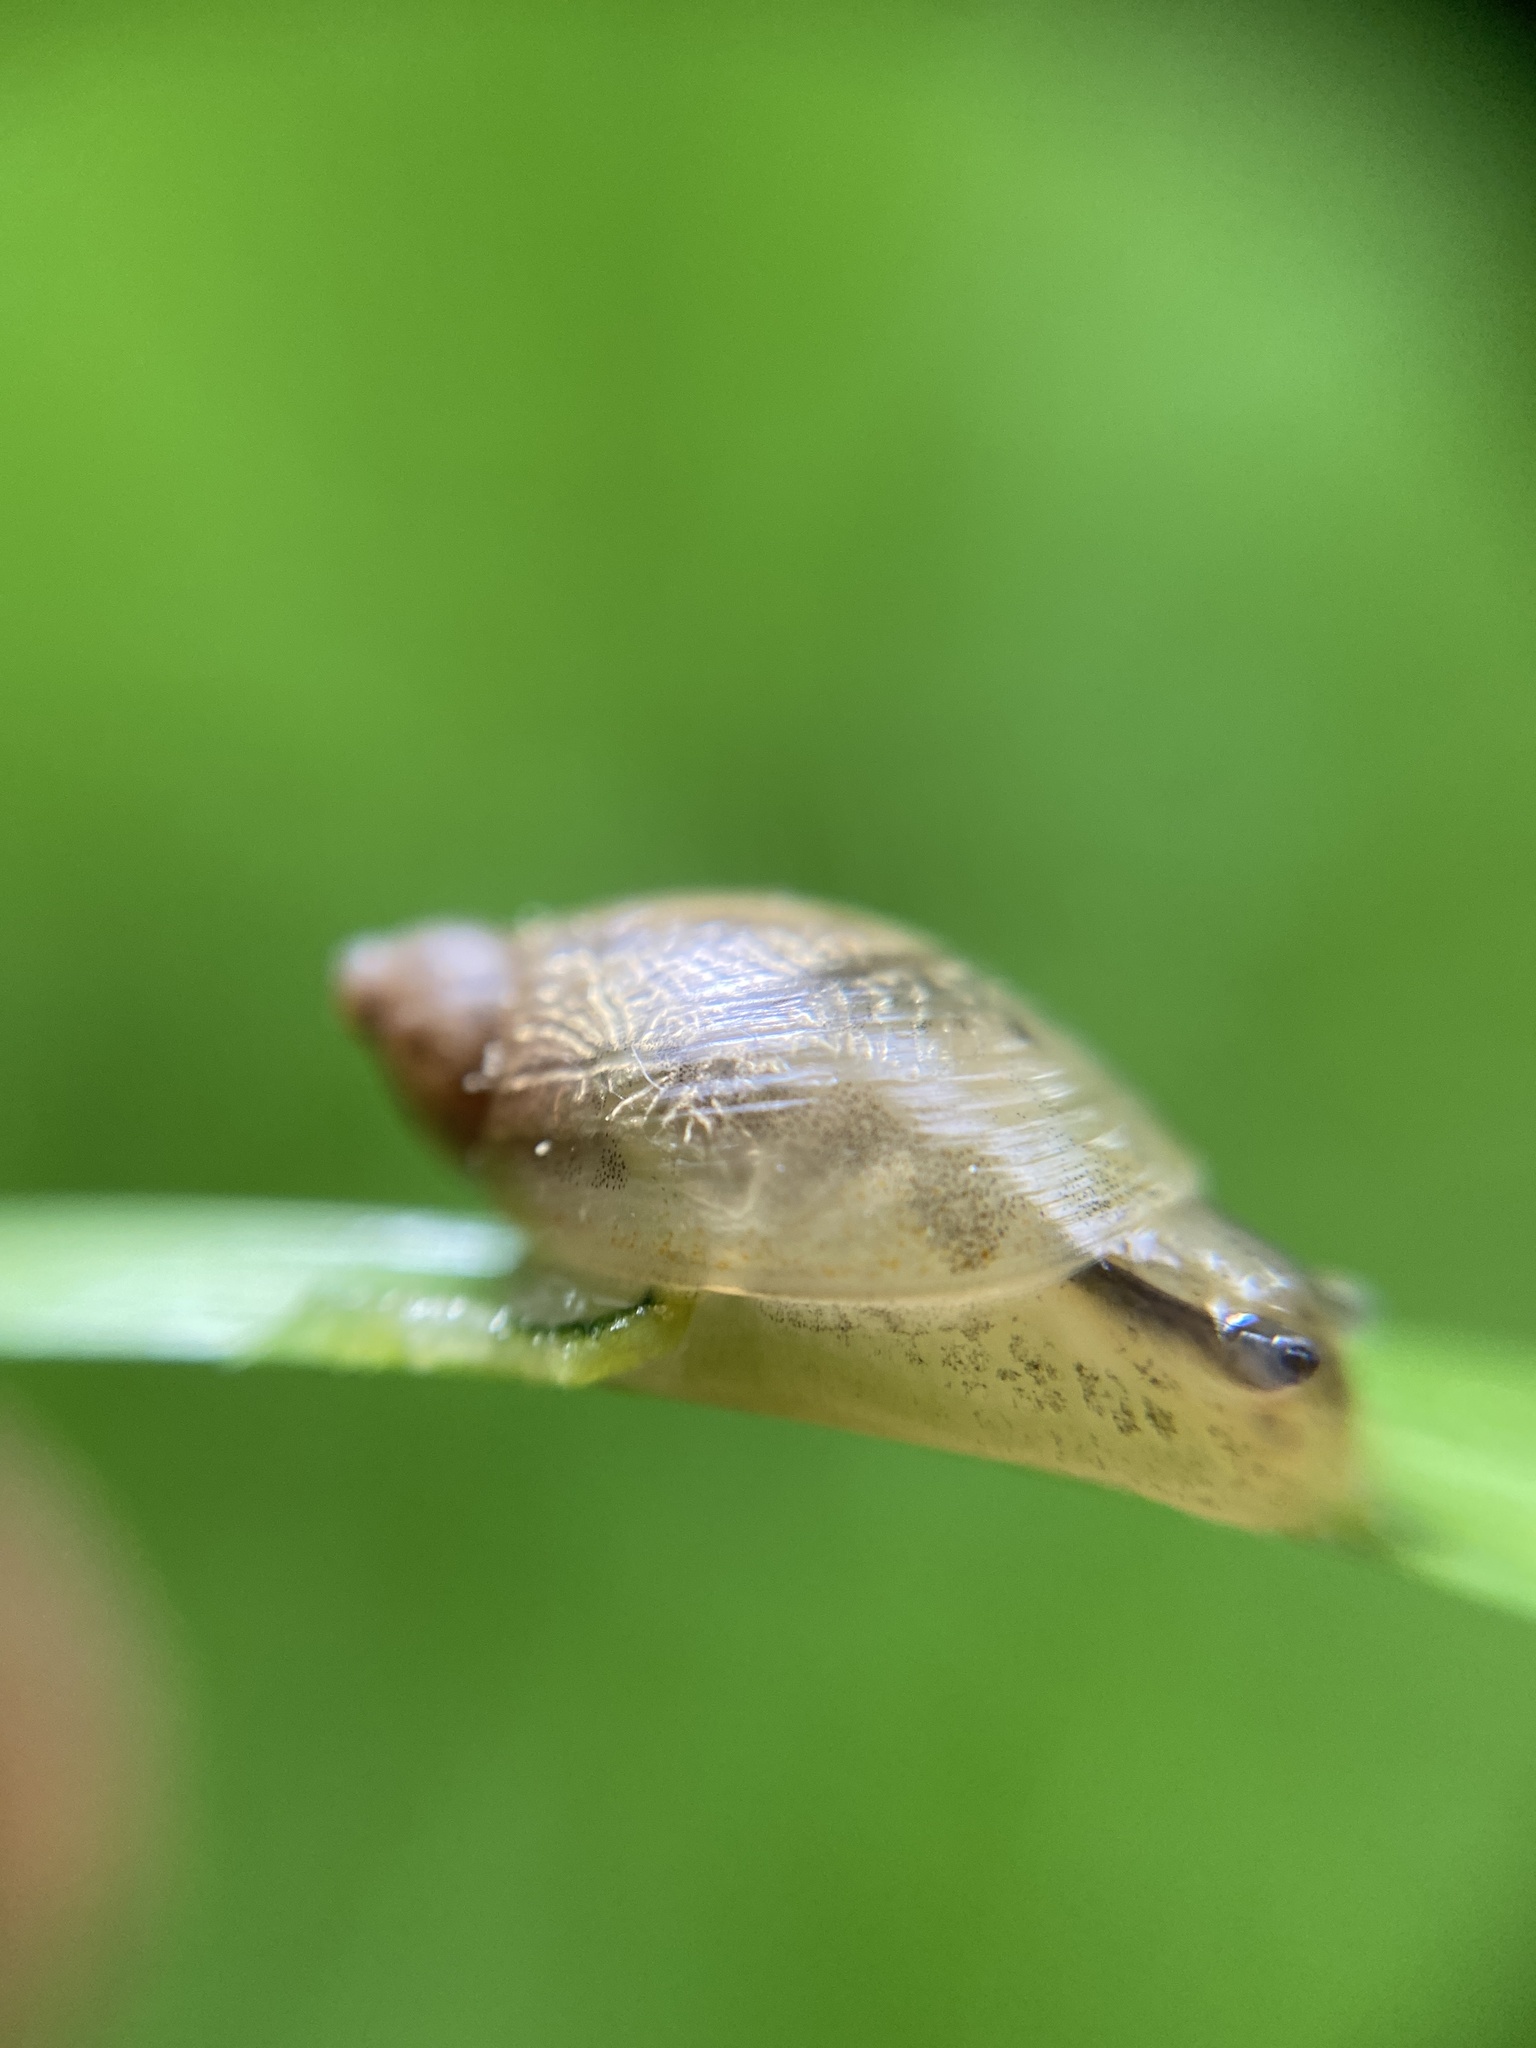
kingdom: Animalia
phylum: Mollusca
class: Gastropoda
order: Stylommatophora
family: Succineidae
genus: Succinea
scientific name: Succinea putris
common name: European ambersnail
